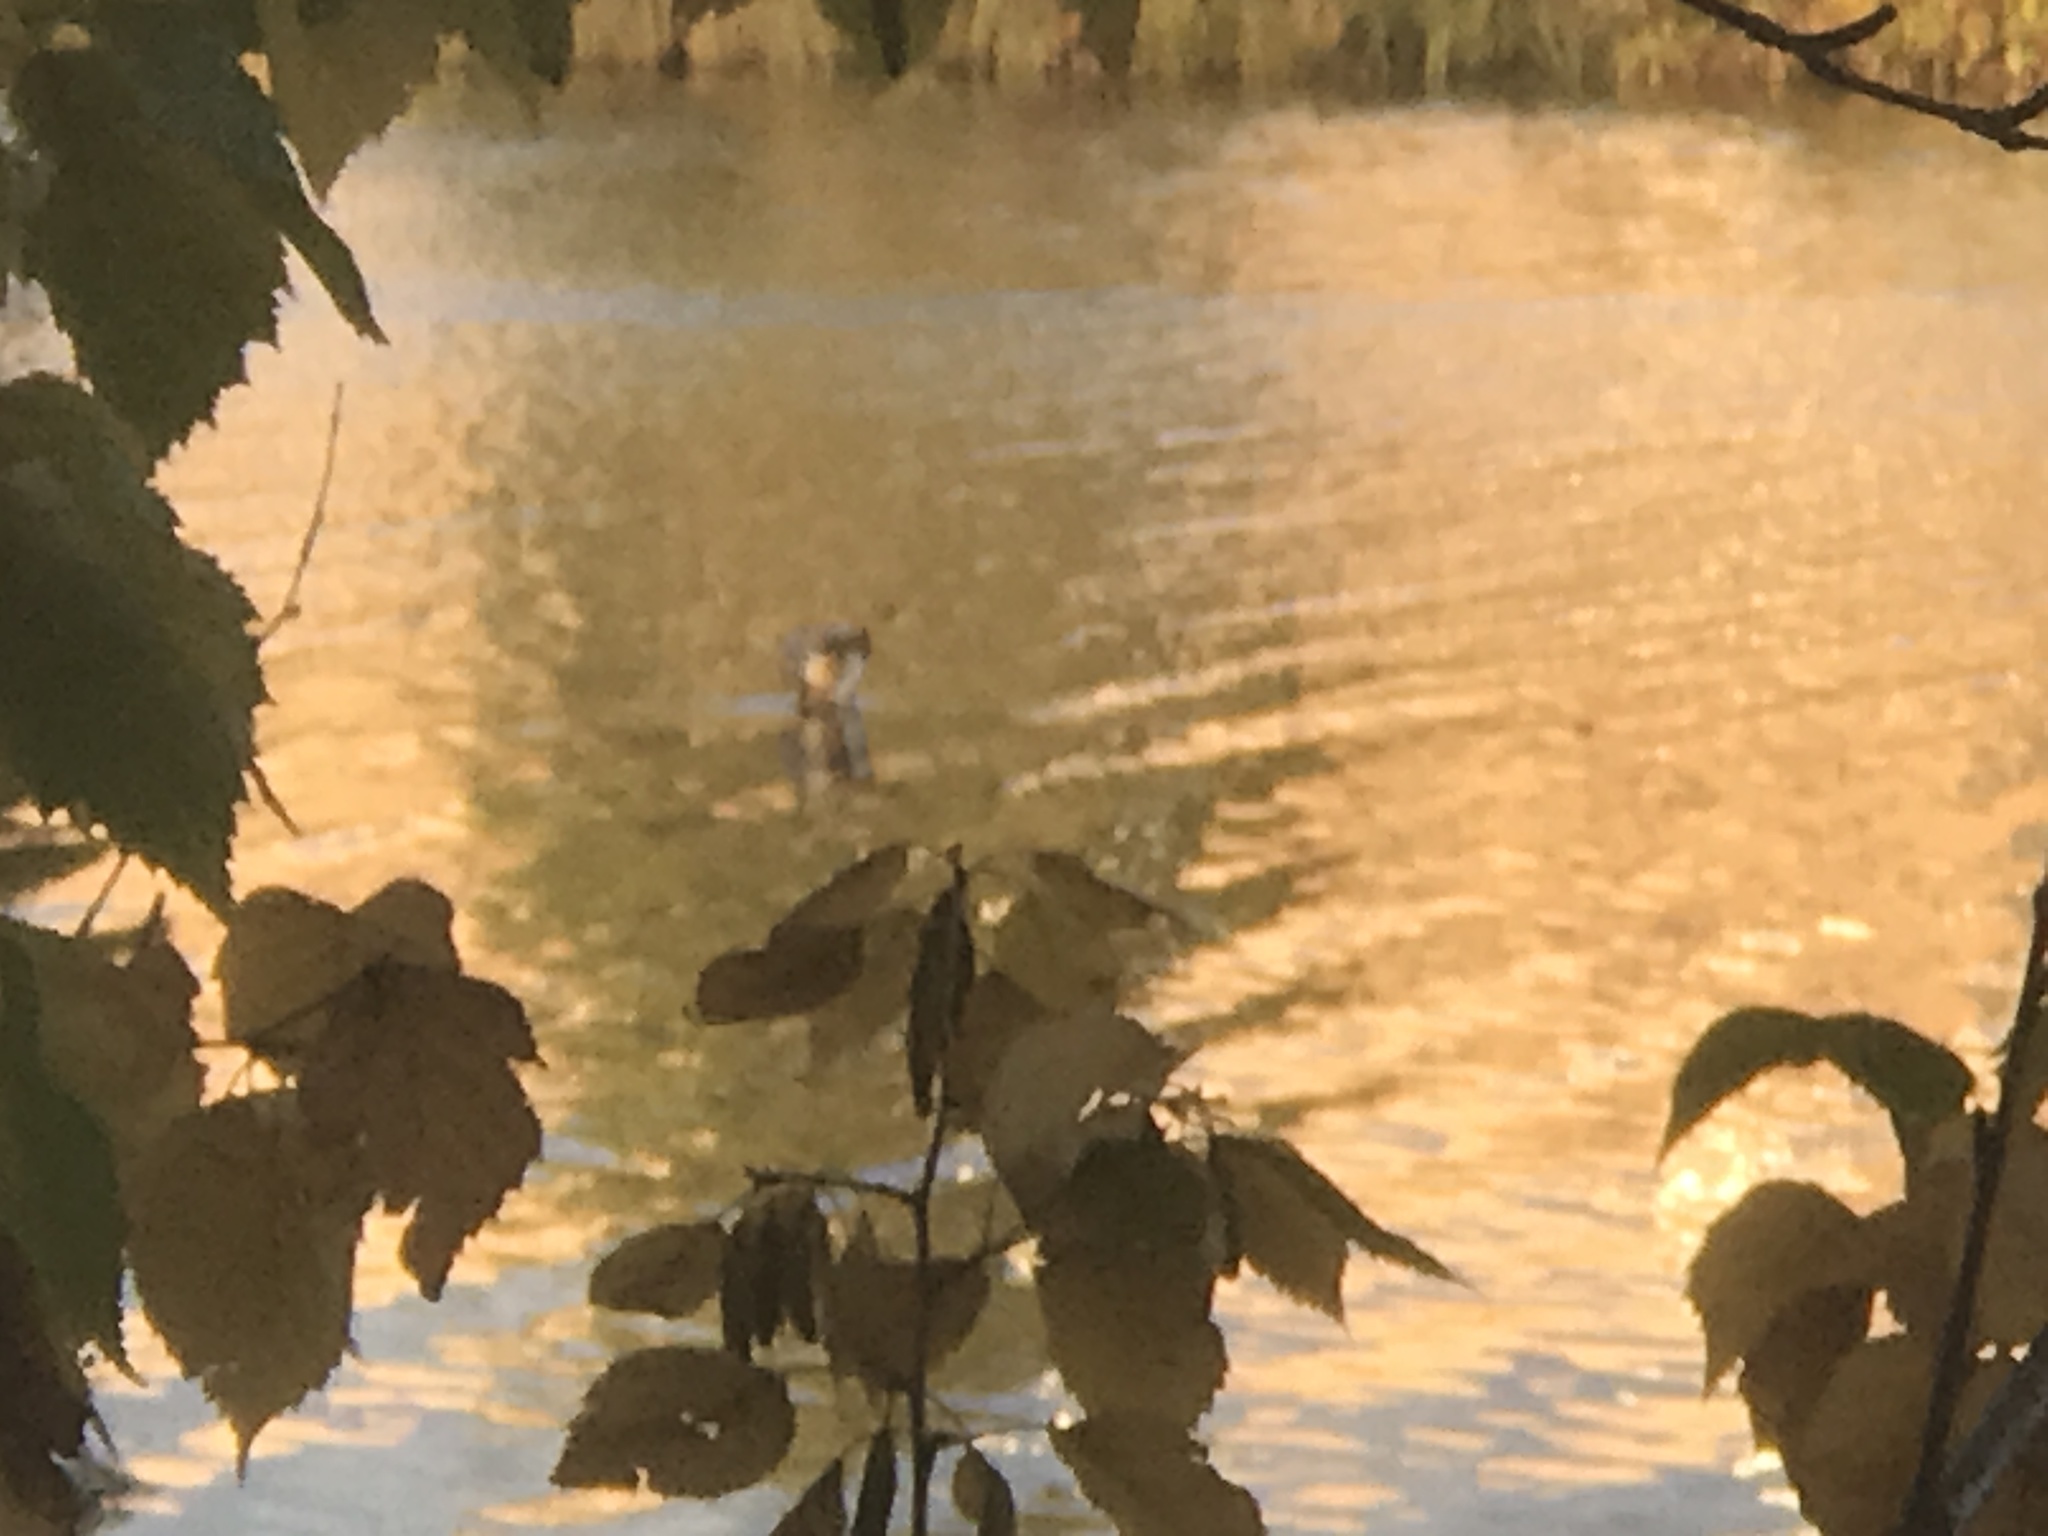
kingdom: Animalia
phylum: Chordata
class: Aves
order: Podicipediformes
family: Podicipedidae
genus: Podilymbus
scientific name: Podilymbus podiceps
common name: Pied-billed grebe
